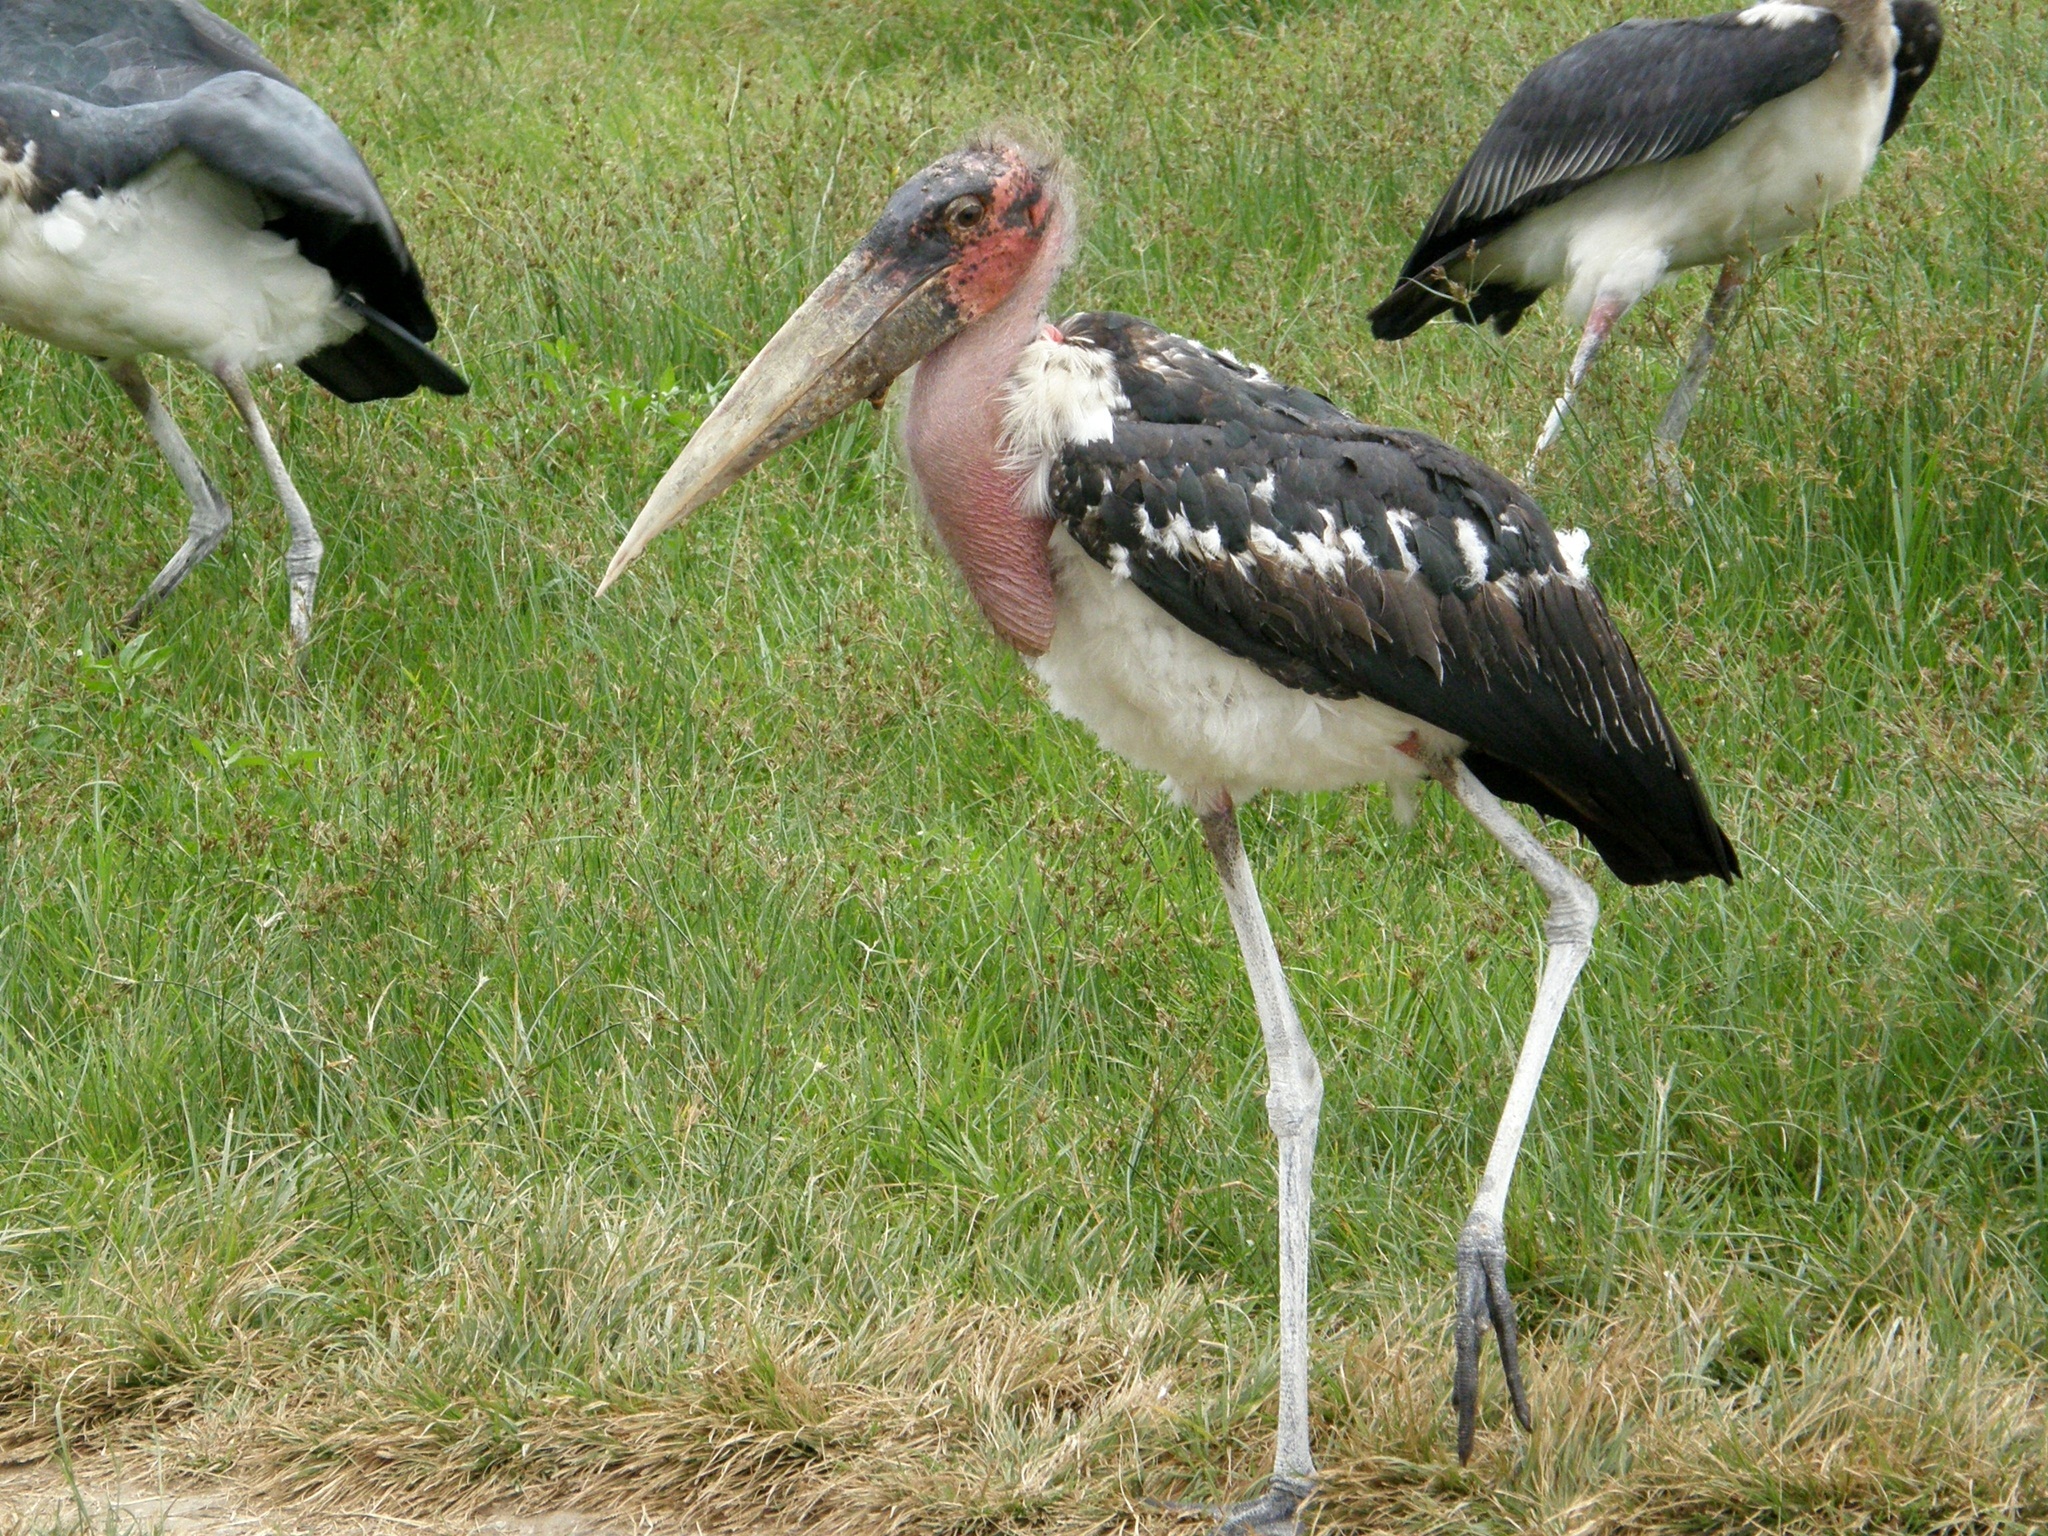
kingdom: Animalia
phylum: Chordata
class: Aves
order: Ciconiiformes
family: Ciconiidae
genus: Leptoptilos
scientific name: Leptoptilos crumenifer
